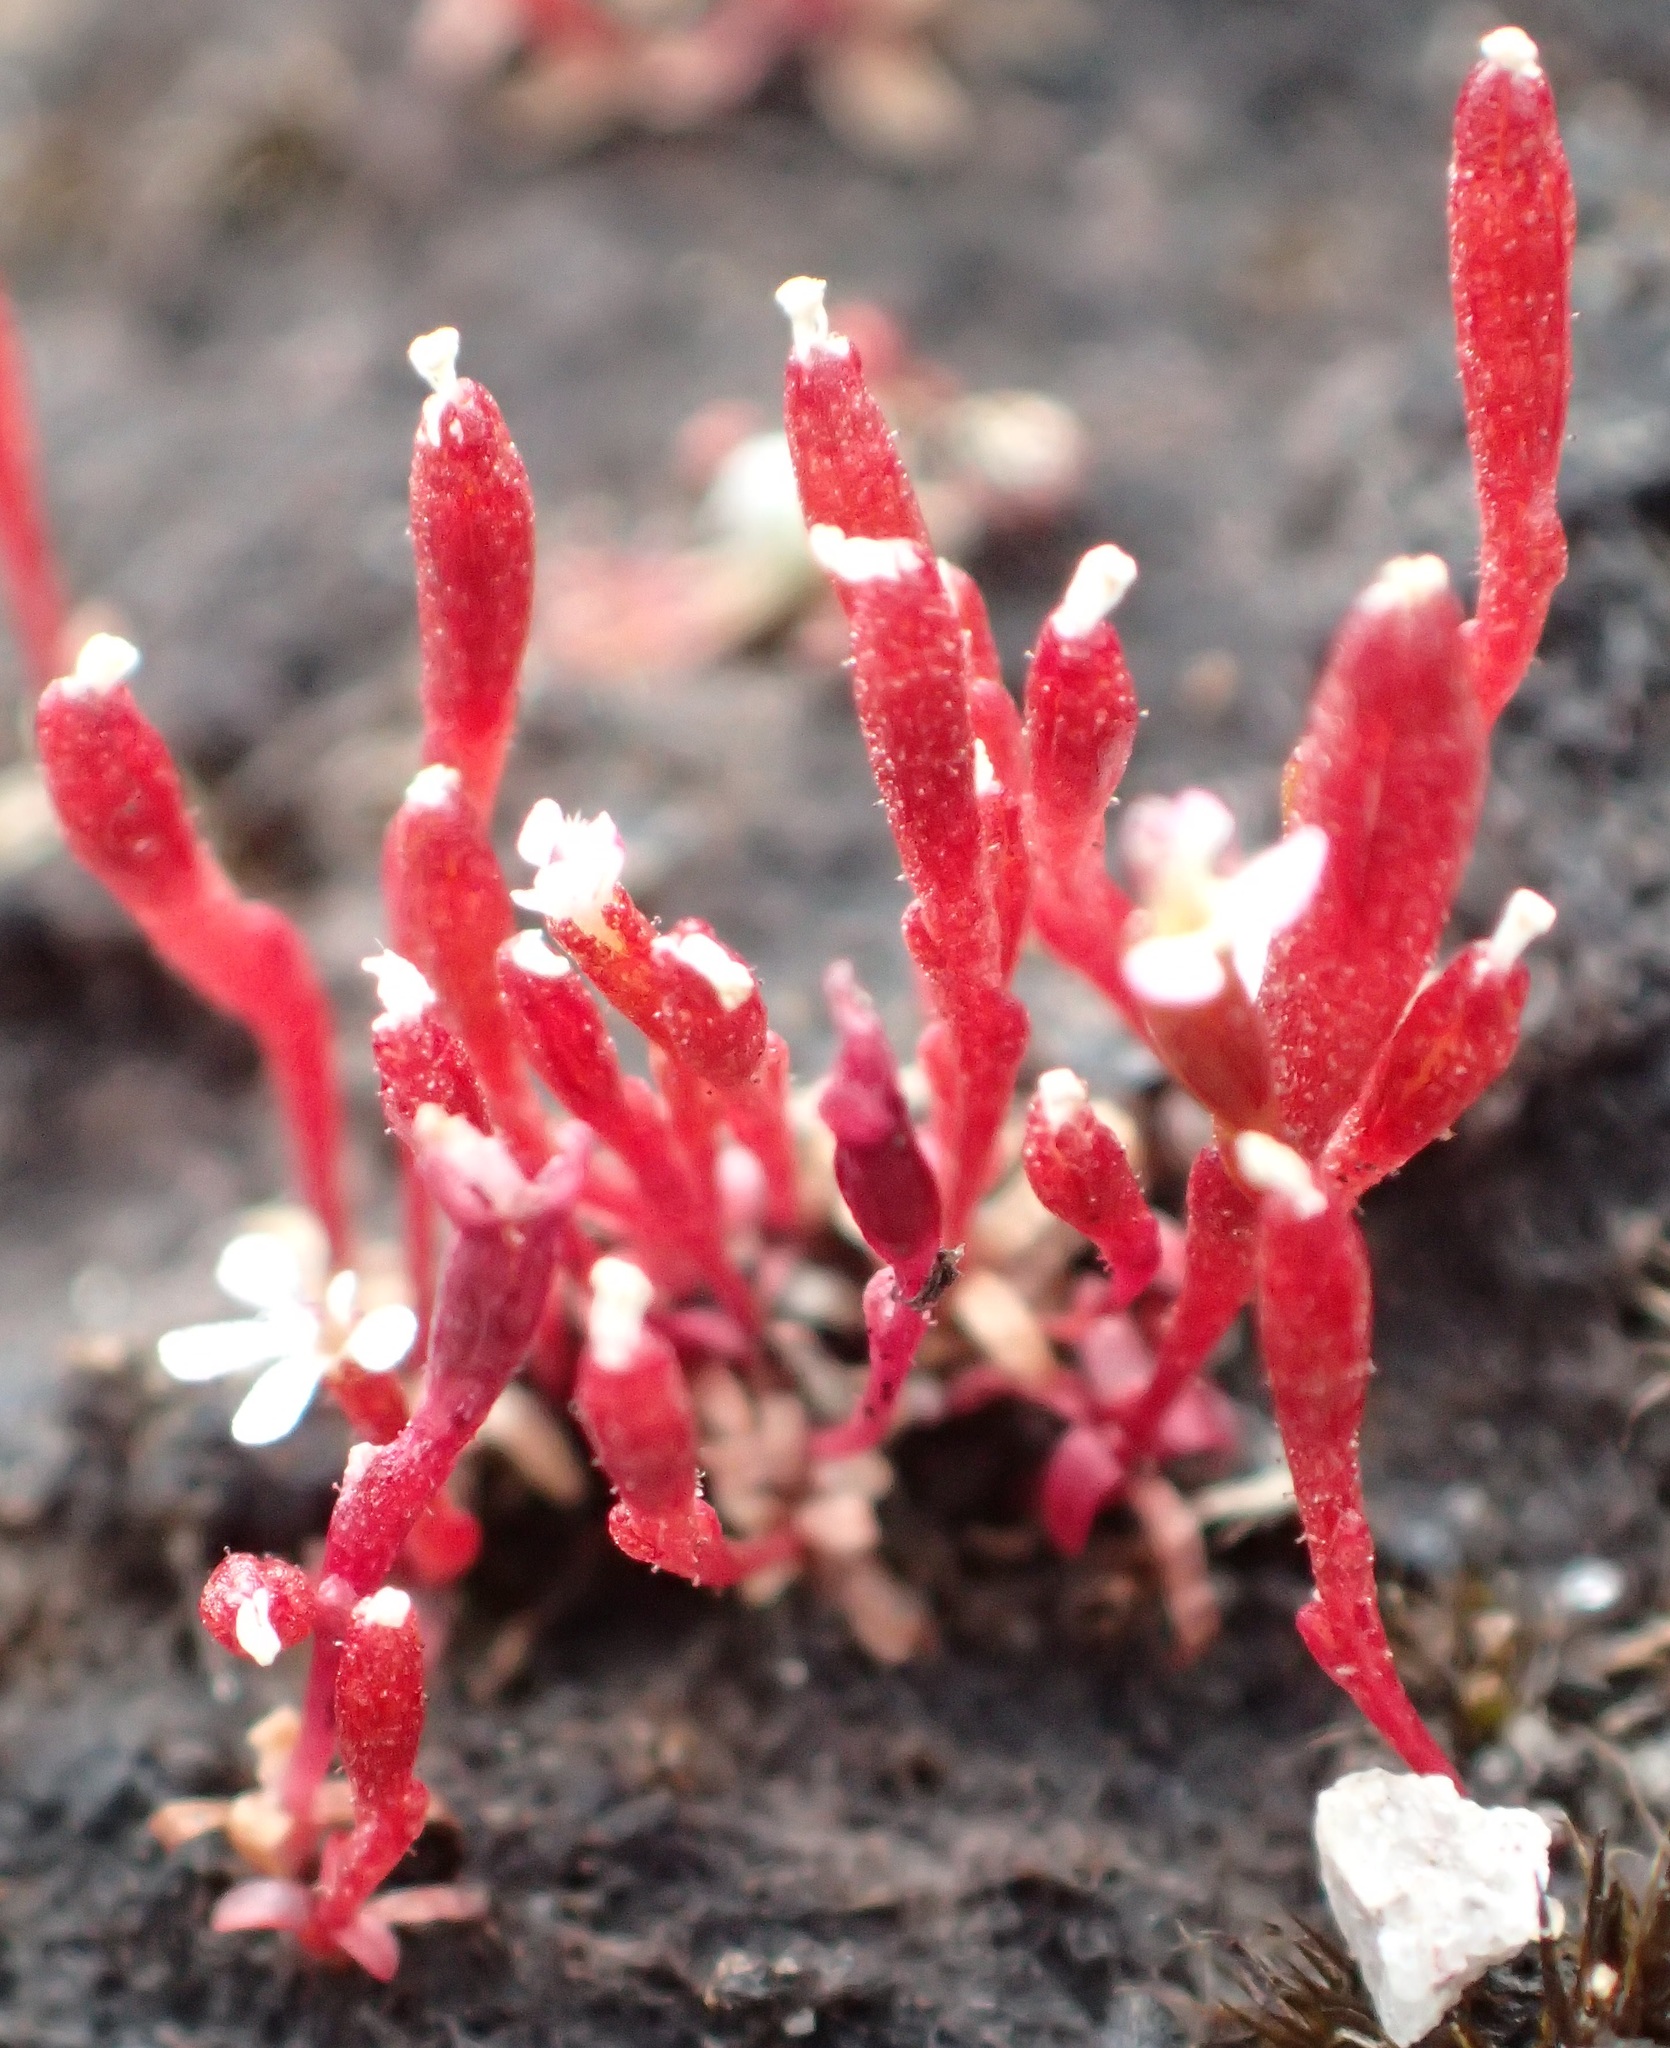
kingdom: Plantae
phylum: Tracheophyta
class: Magnoliopsida
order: Asterales
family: Stylidiaceae
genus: Stylidium
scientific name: Stylidium beaugleholei
